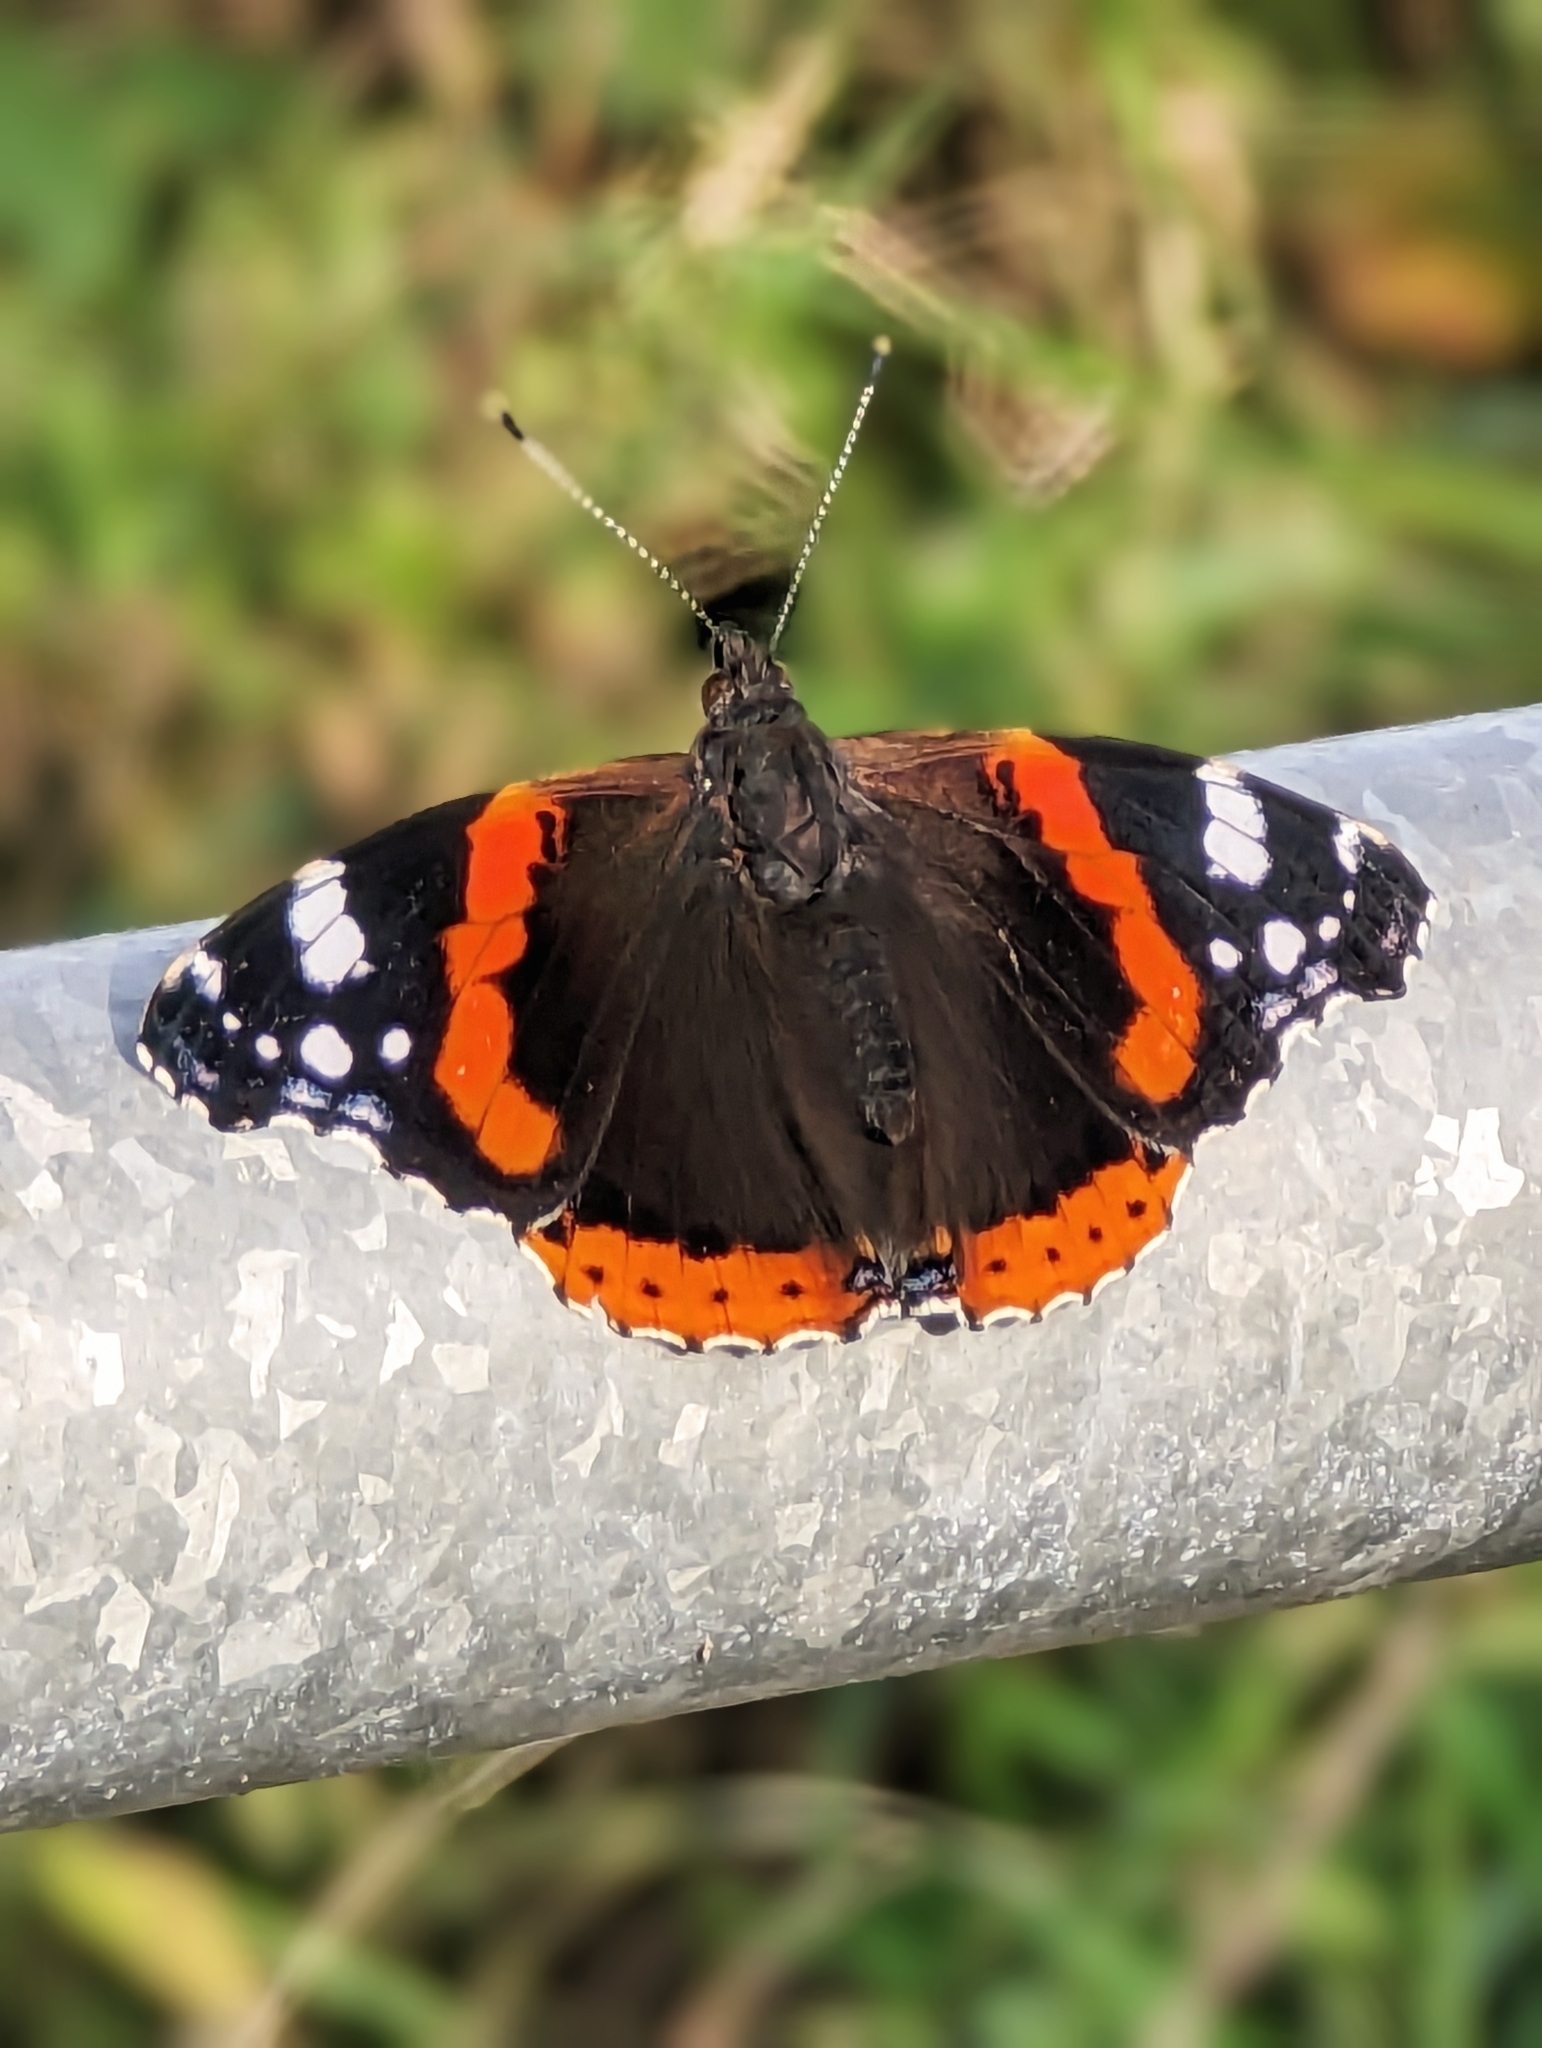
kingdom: Animalia
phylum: Arthropoda
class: Insecta
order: Lepidoptera
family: Nymphalidae
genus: Vanessa
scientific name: Vanessa atalanta
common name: Red admiral
